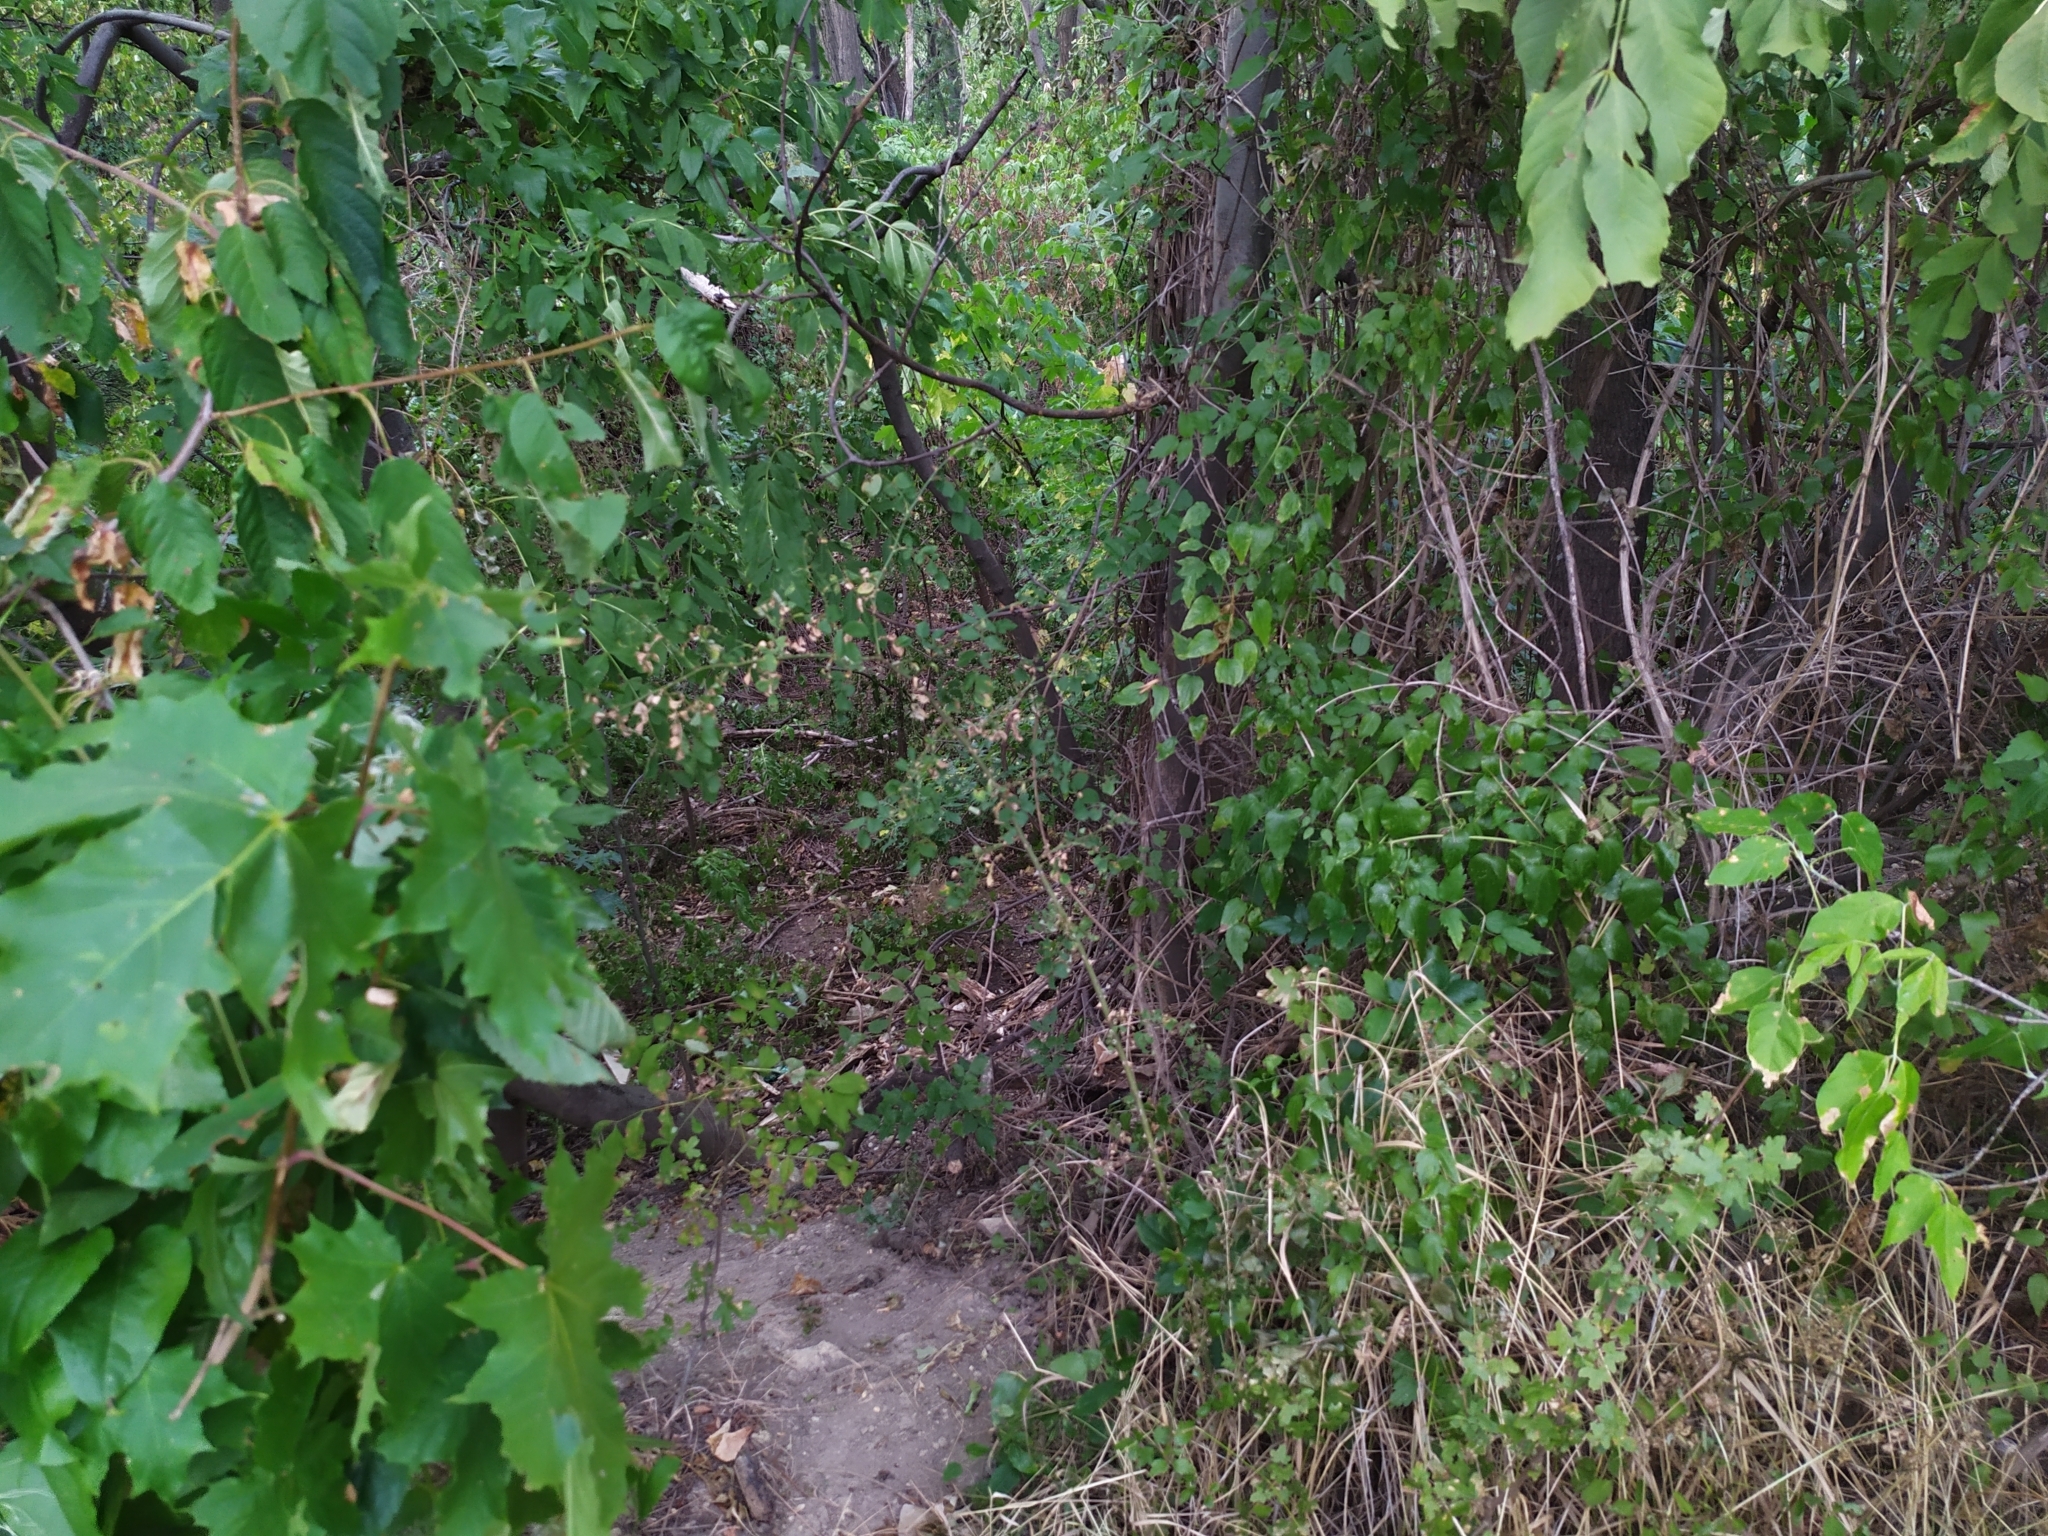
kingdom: Plantae
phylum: Tracheophyta
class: Magnoliopsida
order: Sapindales
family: Sapindaceae
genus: Acer
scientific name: Acer pseudoplatanus
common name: Sycamore
